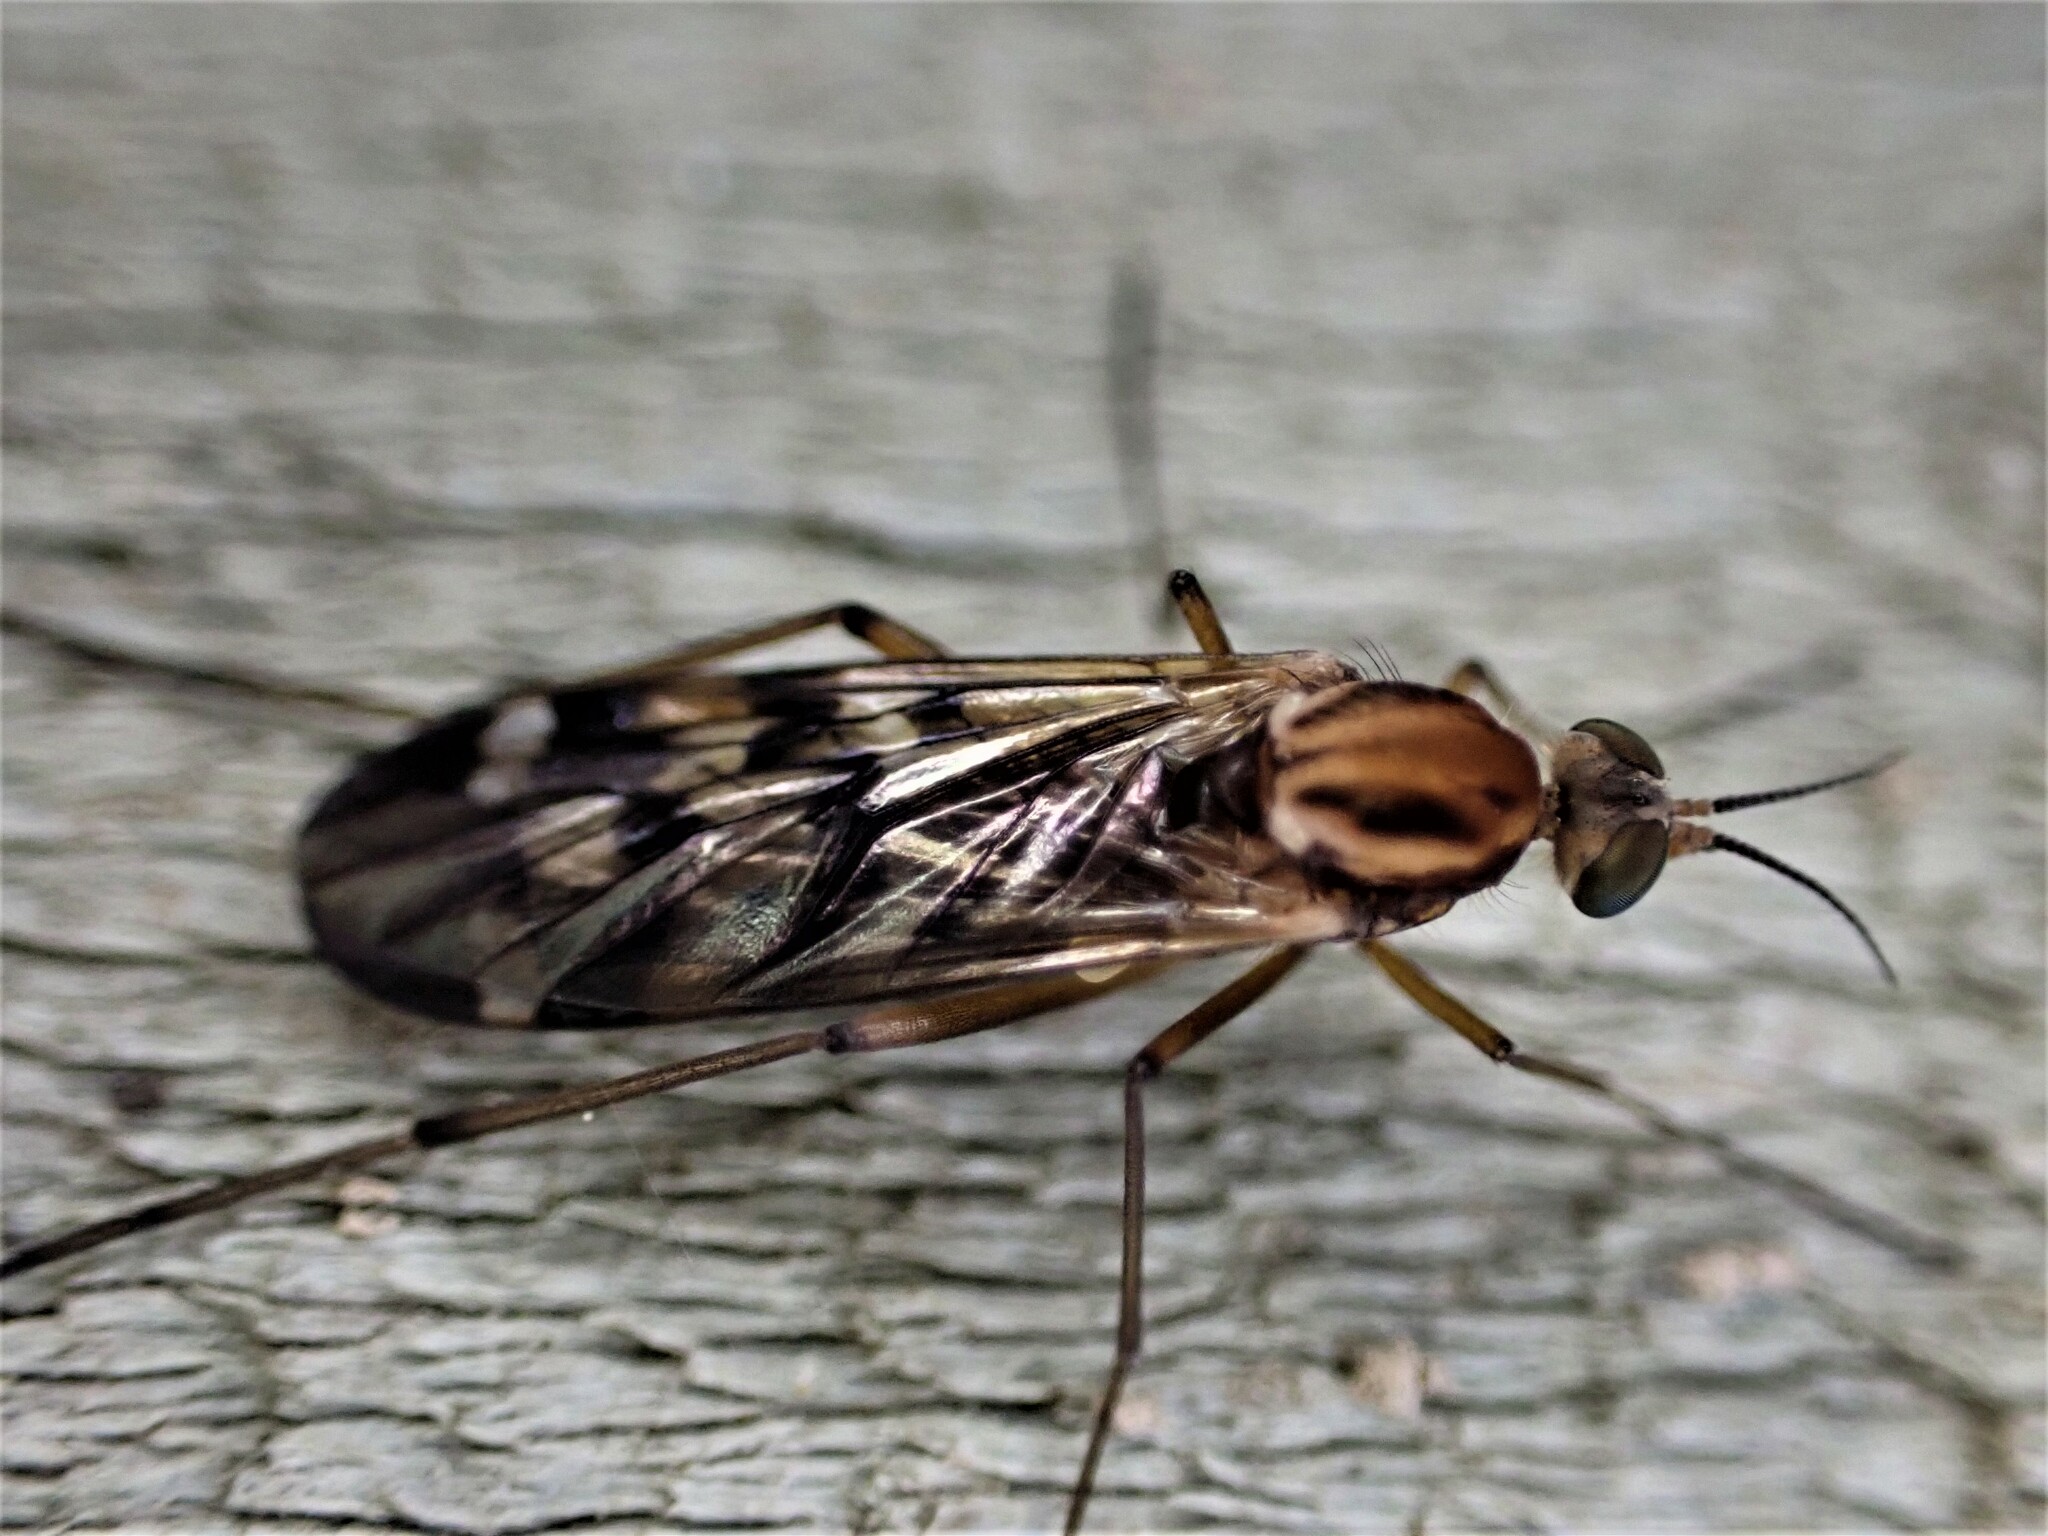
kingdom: Animalia
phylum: Arthropoda
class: Insecta
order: Diptera
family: Anisopodidae
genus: Sylvicola
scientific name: Sylvicola notatus
